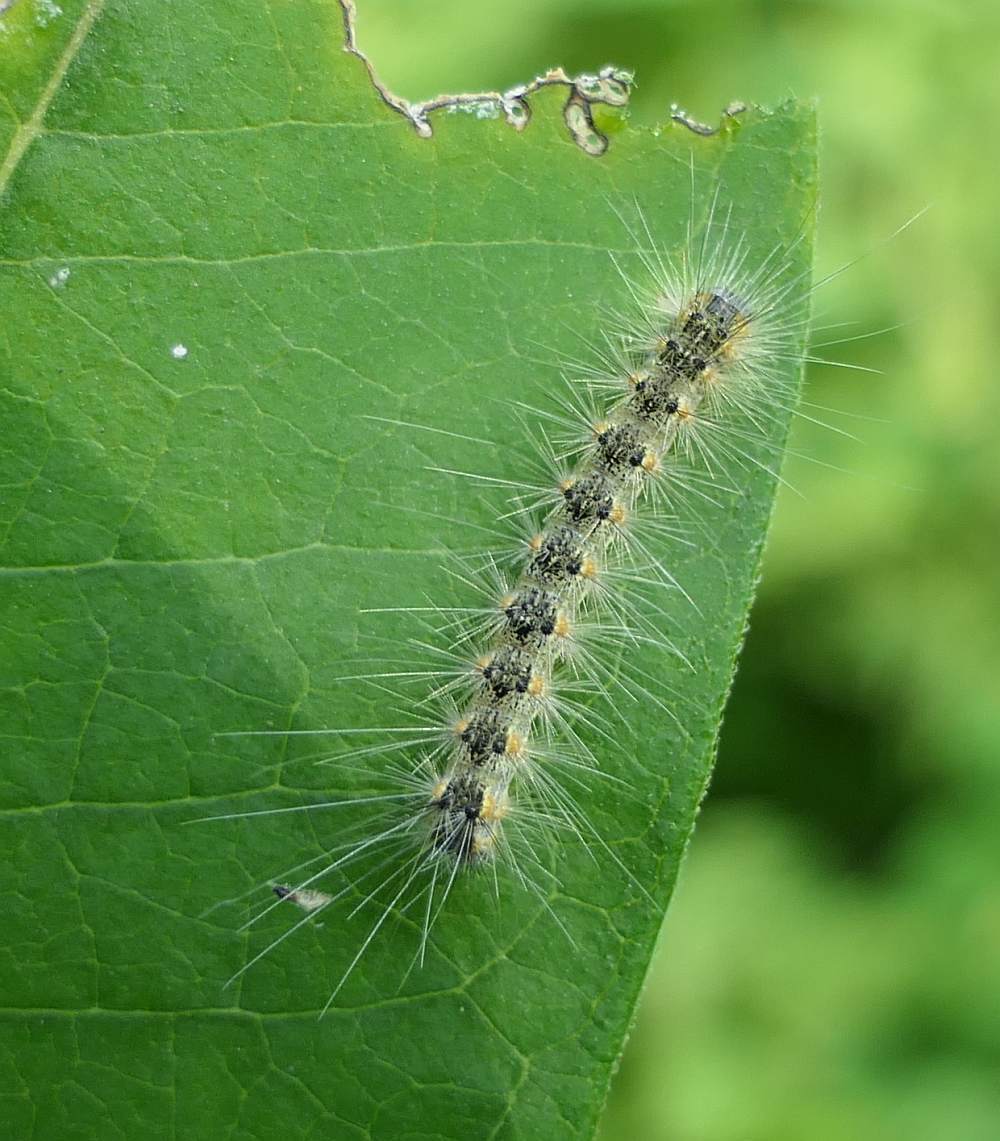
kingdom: Animalia
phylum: Arthropoda
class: Insecta
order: Lepidoptera
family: Erebidae
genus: Hyphantria
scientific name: Hyphantria cunea
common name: American white moth
